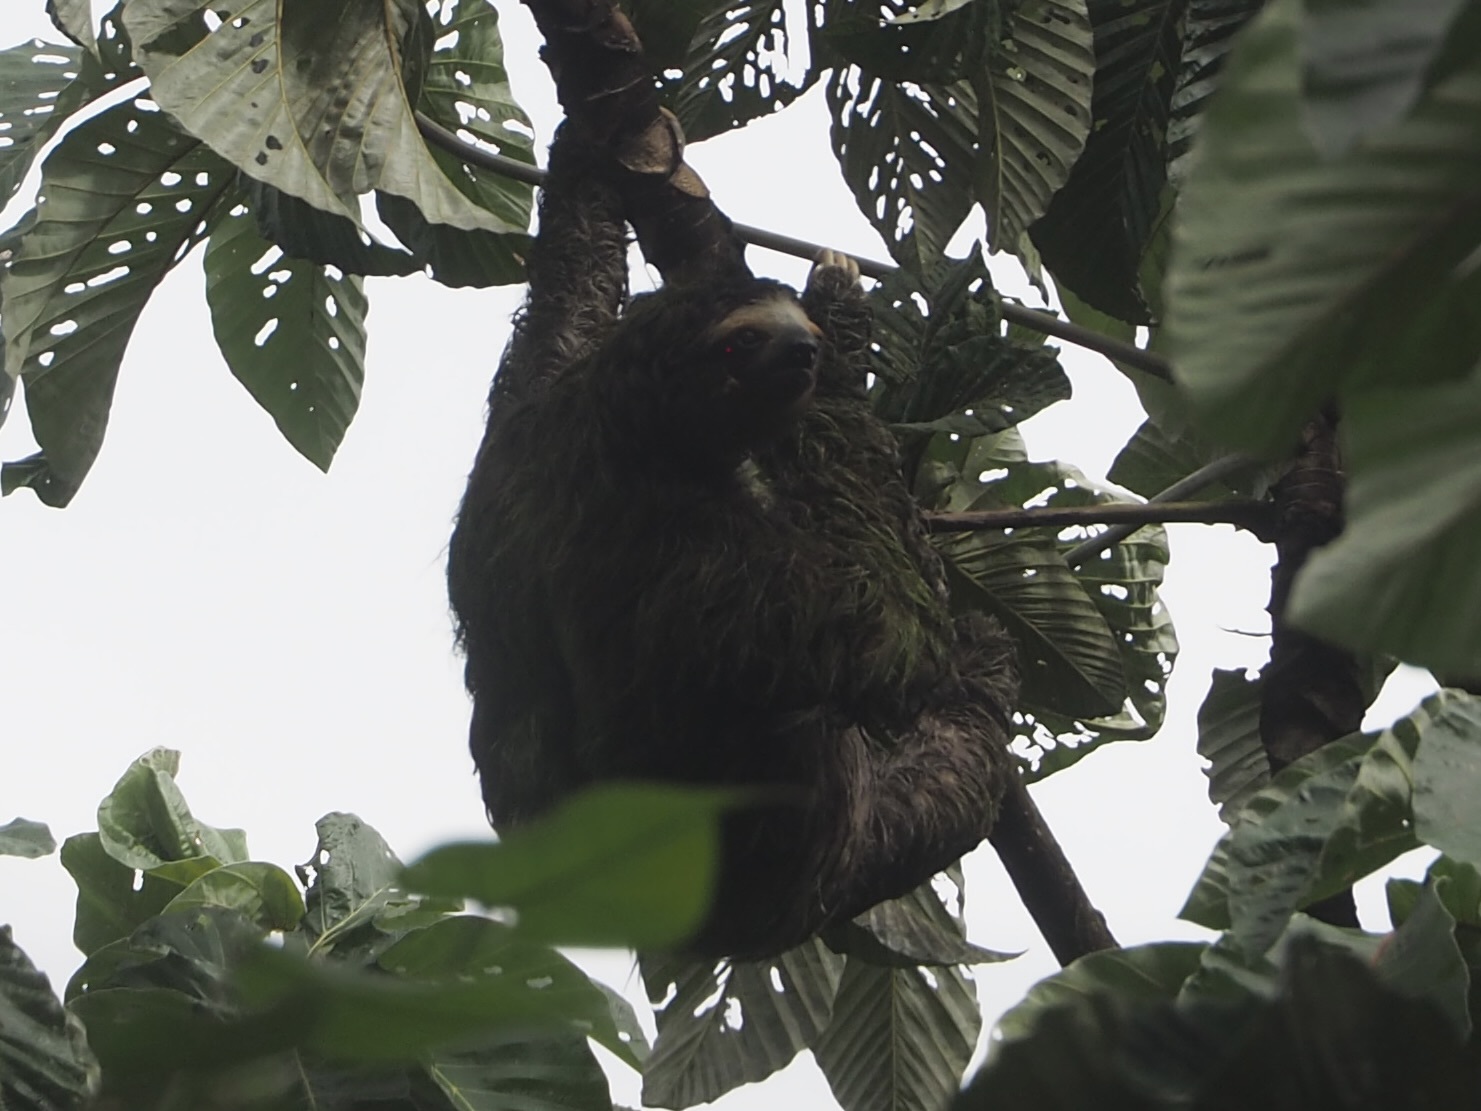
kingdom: Animalia
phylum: Chordata
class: Mammalia
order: Pilosa
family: Bradypodidae
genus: Bradypus
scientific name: Bradypus variegatus
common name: Brown-throated three-toed sloth
